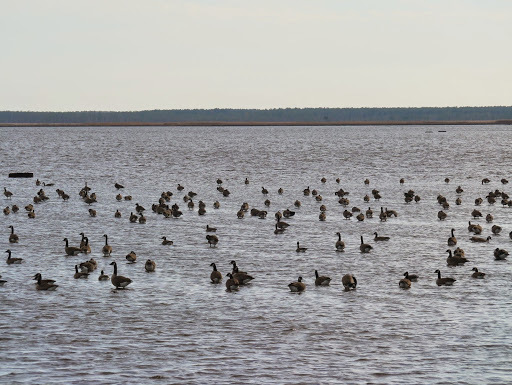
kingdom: Animalia
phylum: Chordata
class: Aves
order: Anseriformes
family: Anatidae
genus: Branta
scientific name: Branta canadensis
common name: Canada goose
